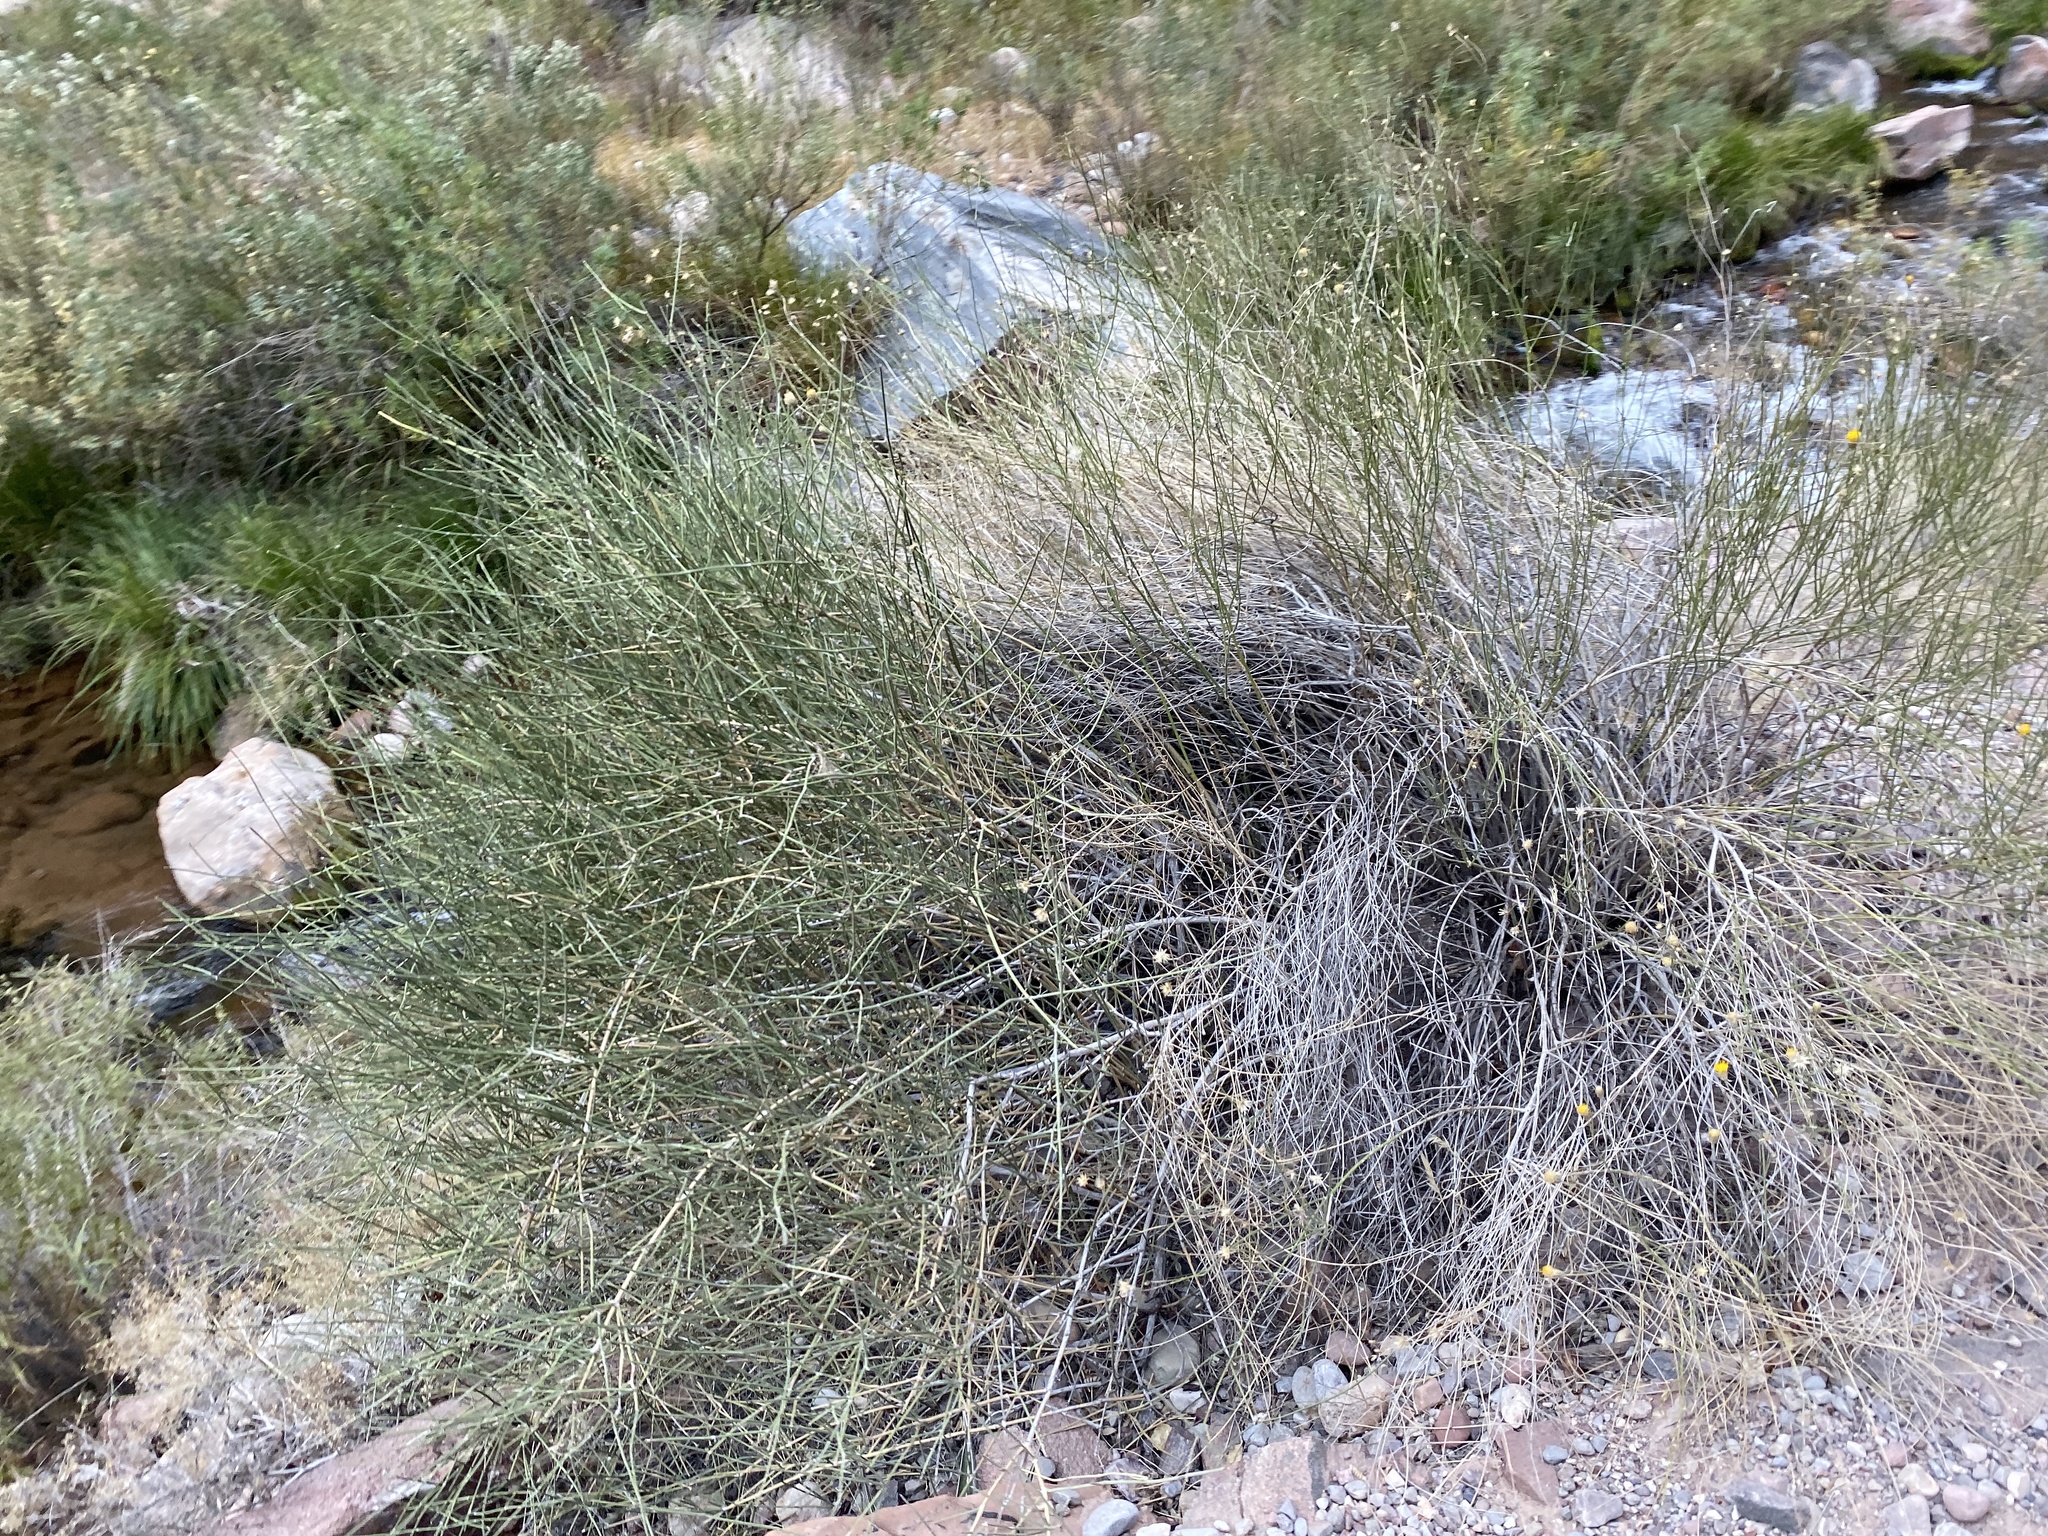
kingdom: Plantae
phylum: Tracheophyta
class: Magnoliopsida
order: Asterales
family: Asteraceae
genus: Bebbia
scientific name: Bebbia juncea
